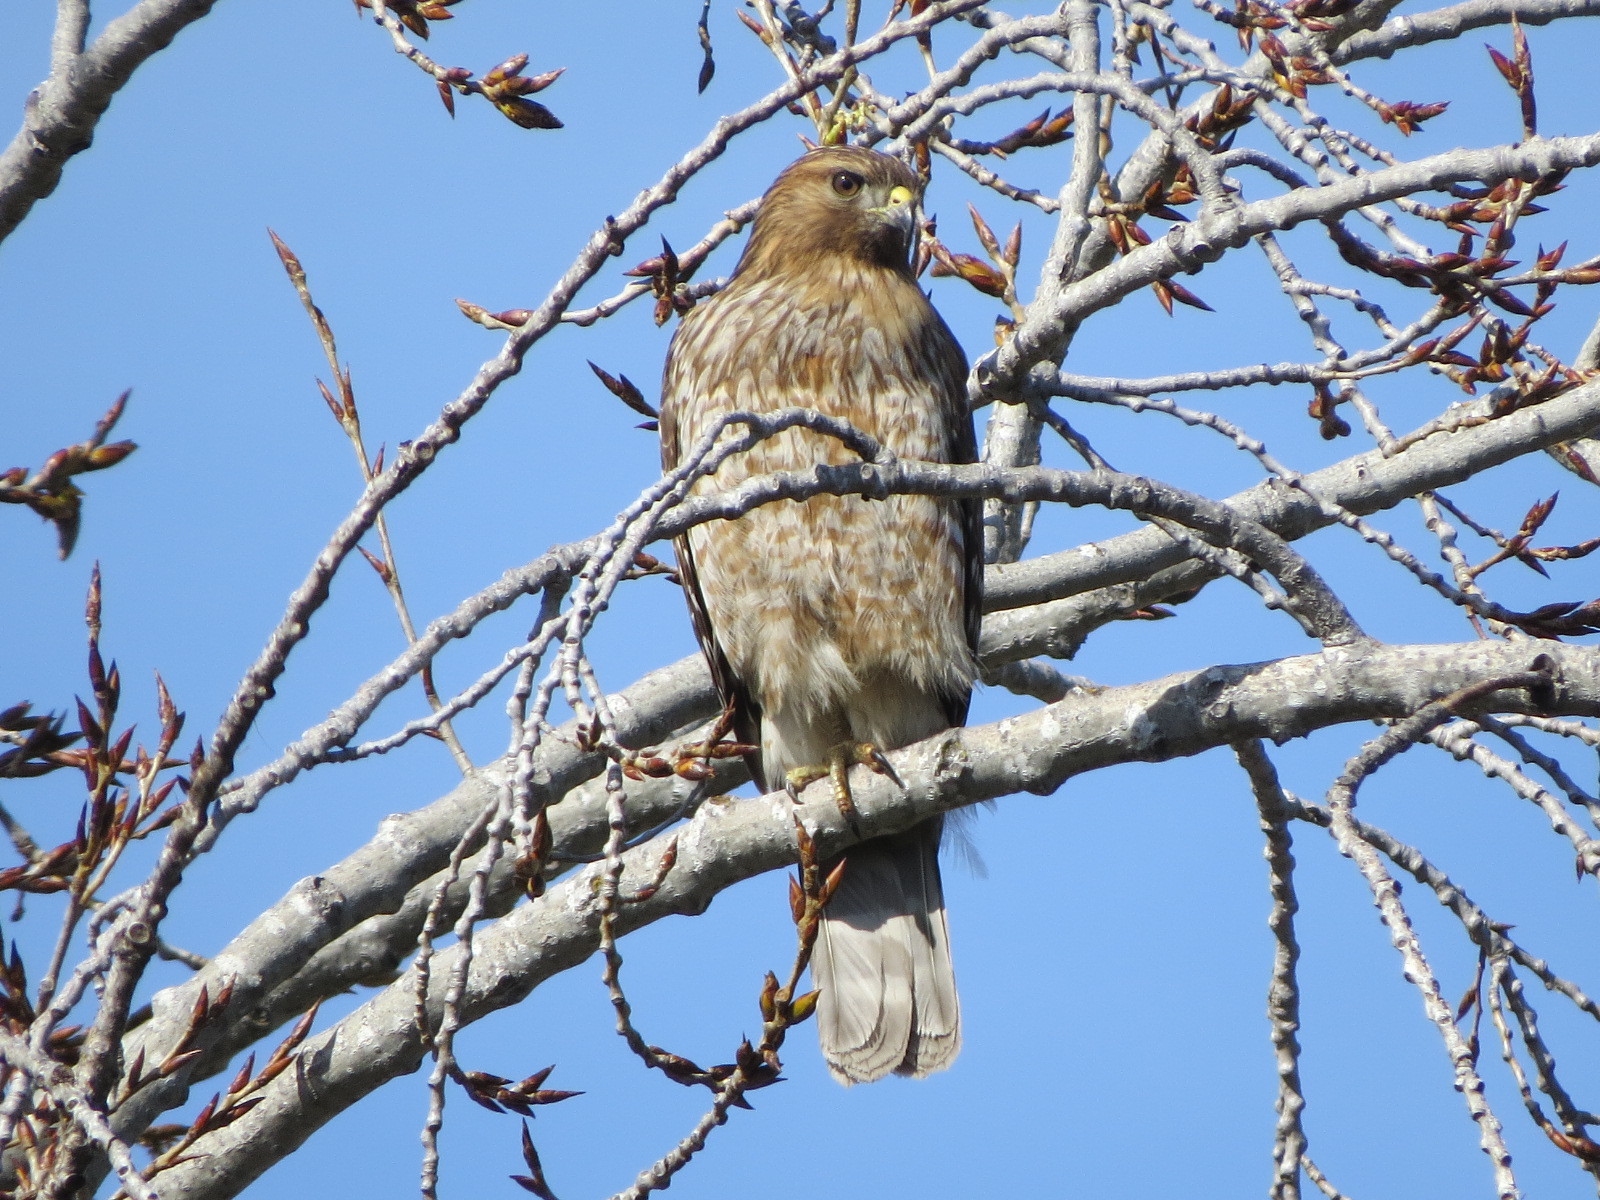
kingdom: Animalia
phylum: Chordata
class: Aves
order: Accipitriformes
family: Accipitridae
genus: Buteo
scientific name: Buteo lineatus
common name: Red-shouldered hawk
